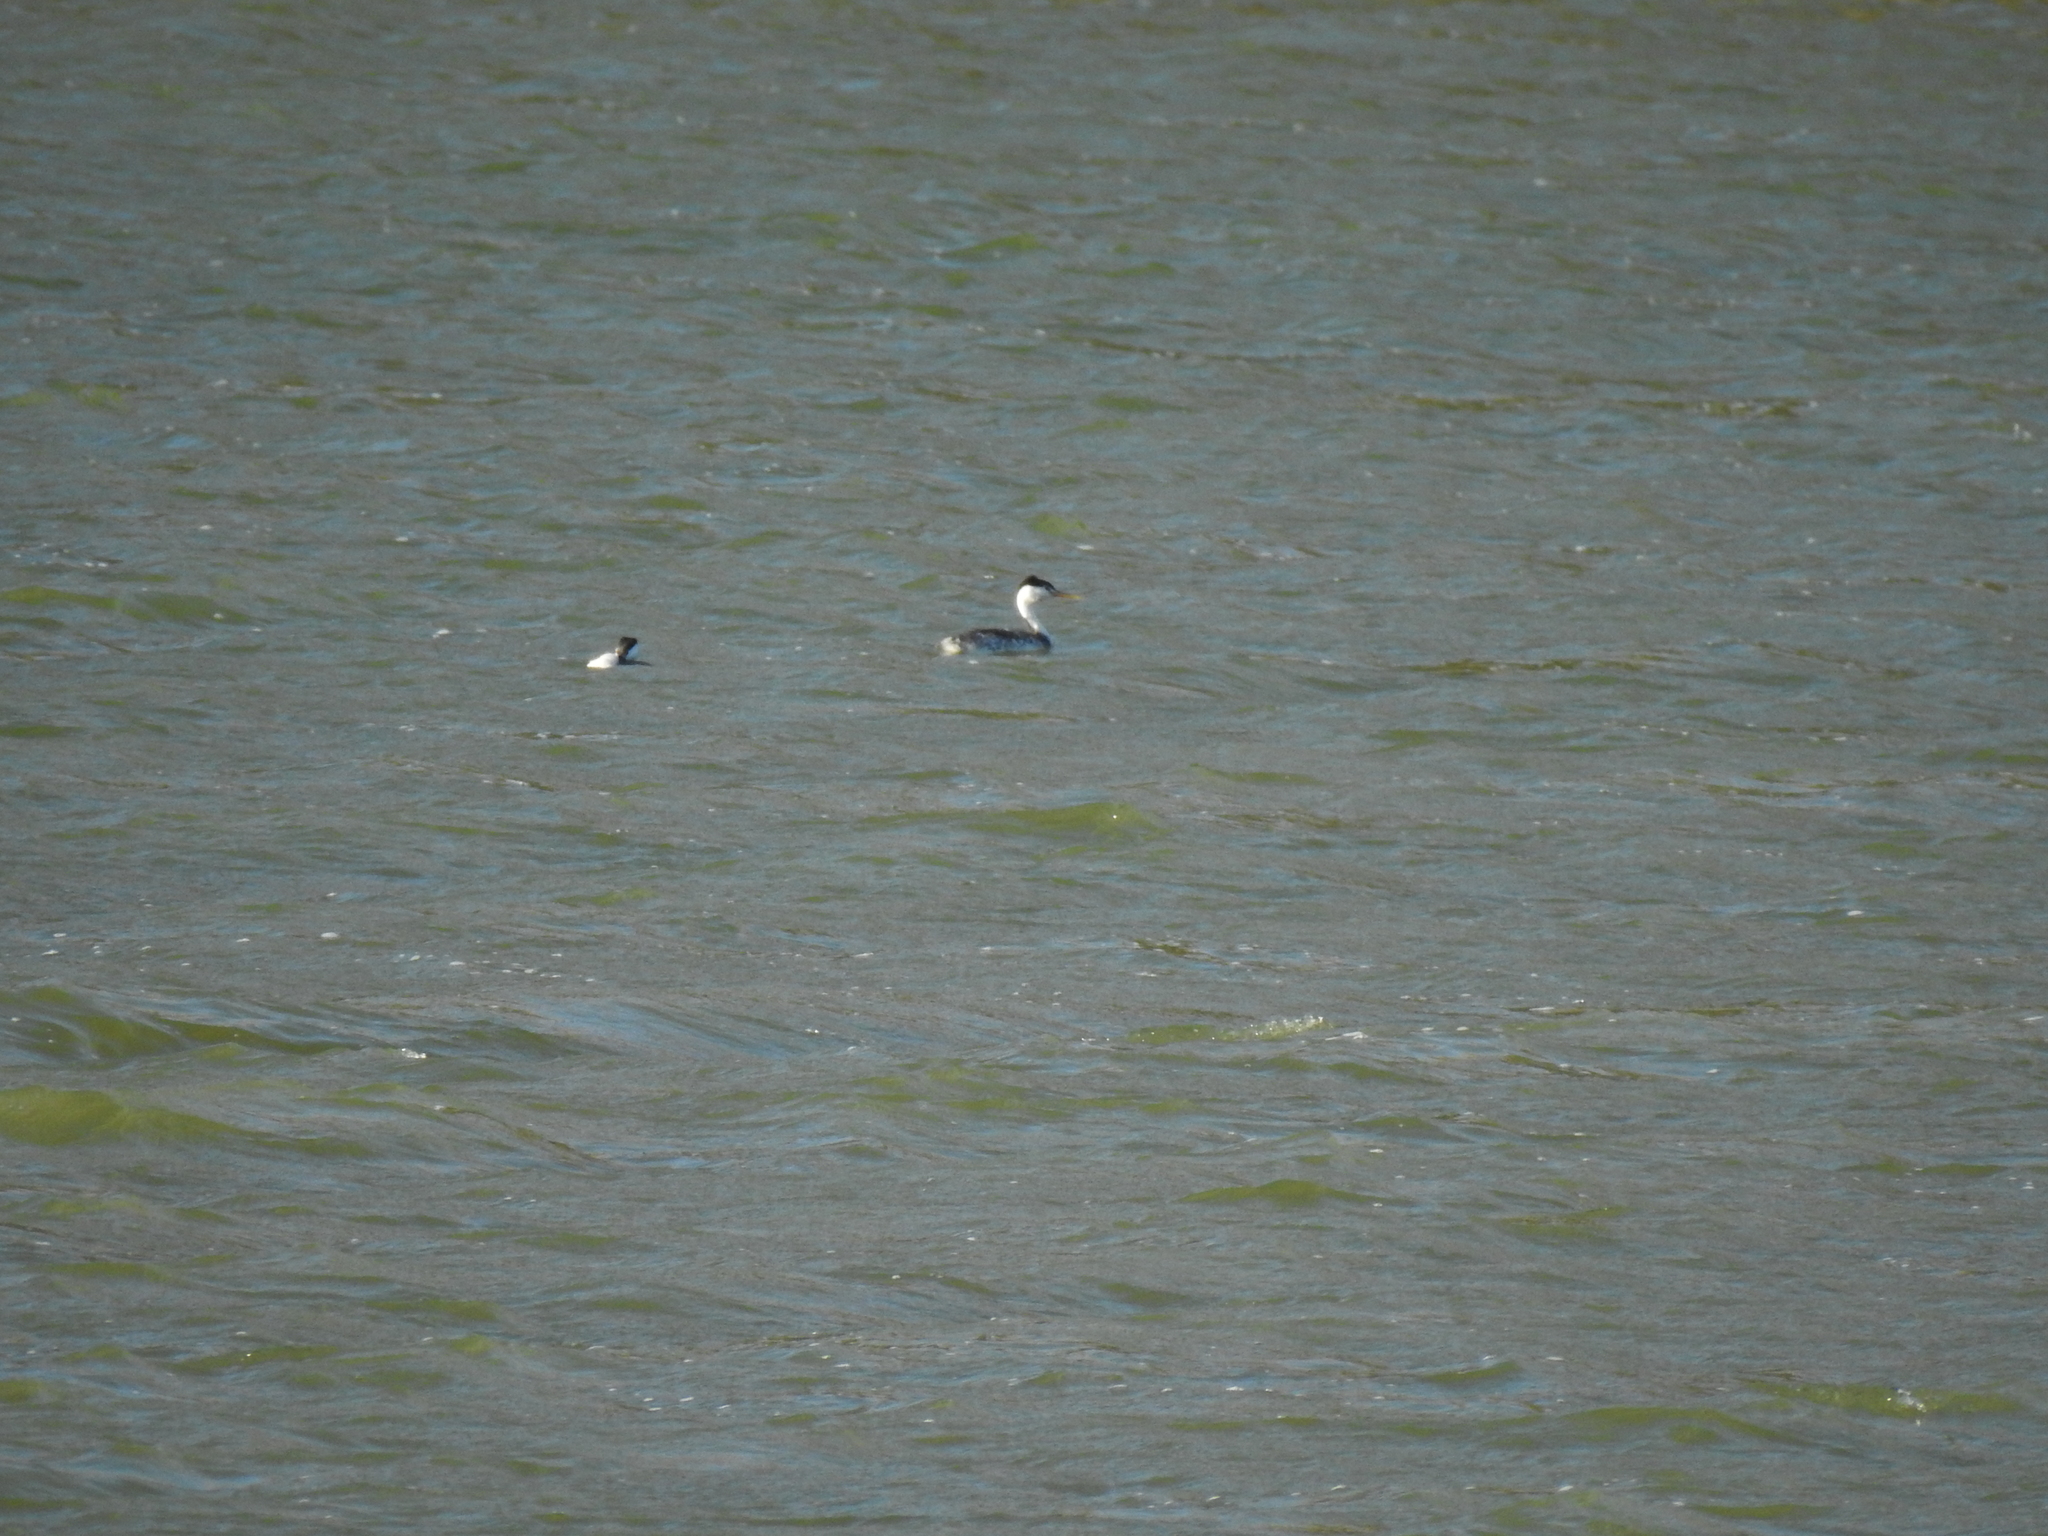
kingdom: Animalia
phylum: Chordata
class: Aves
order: Podicipediformes
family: Podicipedidae
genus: Aechmophorus
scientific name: Aechmophorus clarkii
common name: Clark's grebe
